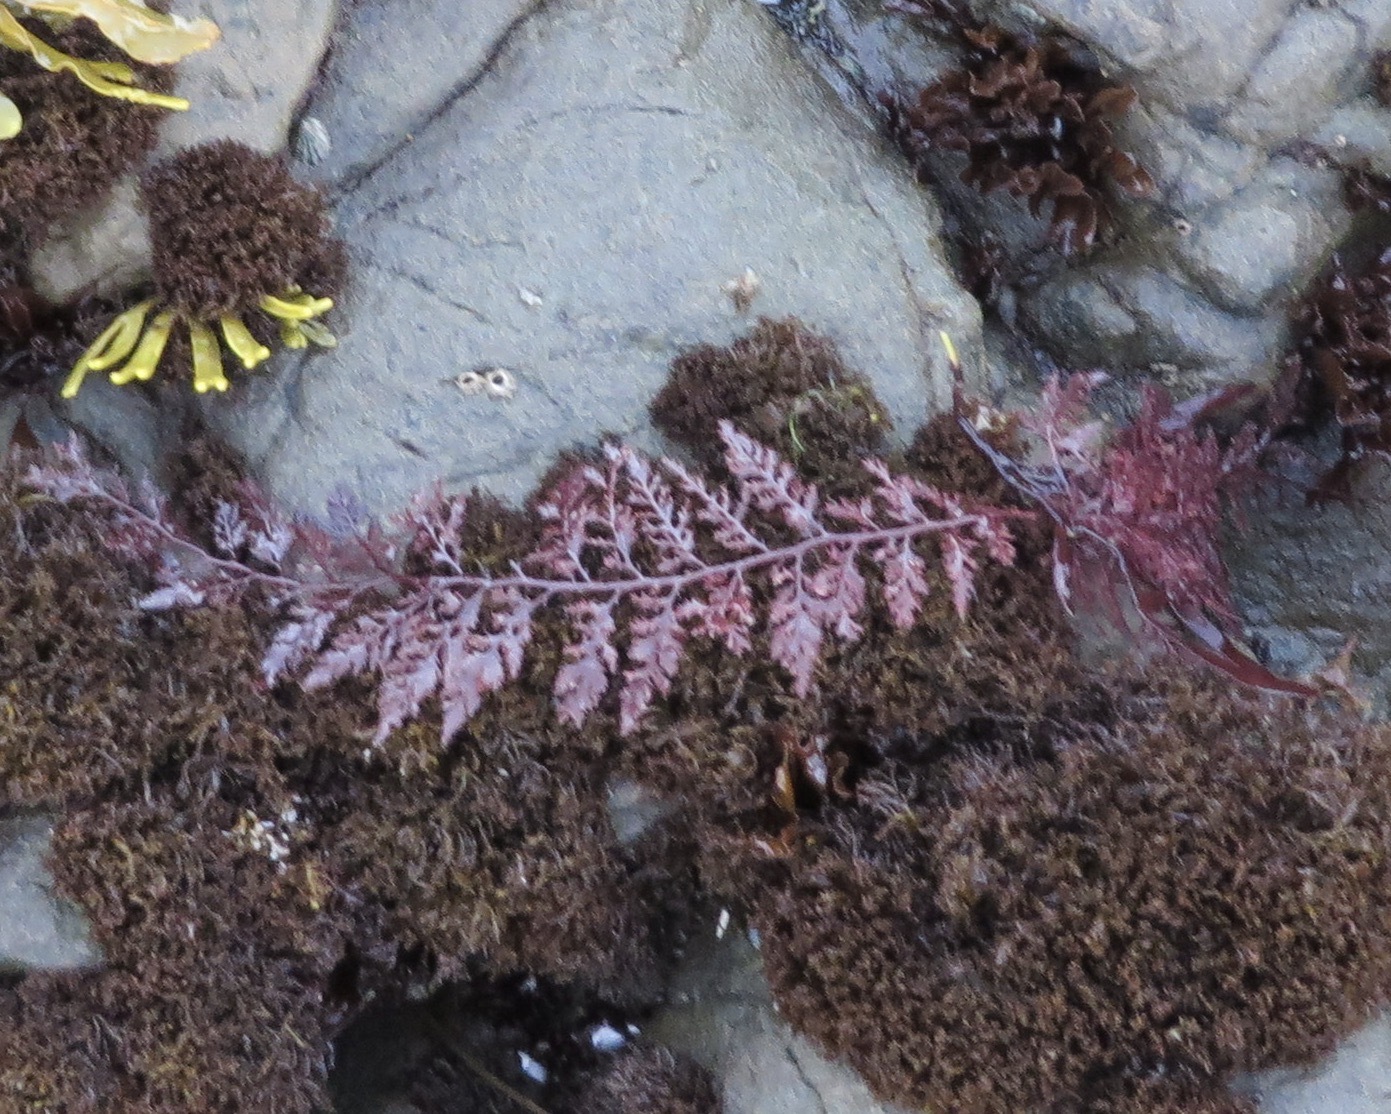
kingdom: Plantae
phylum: Rhodophyta
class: Florideophyceae
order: Ceramiales
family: Ceramiaceae
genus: Microcladia
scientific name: Microcladia coulteri
